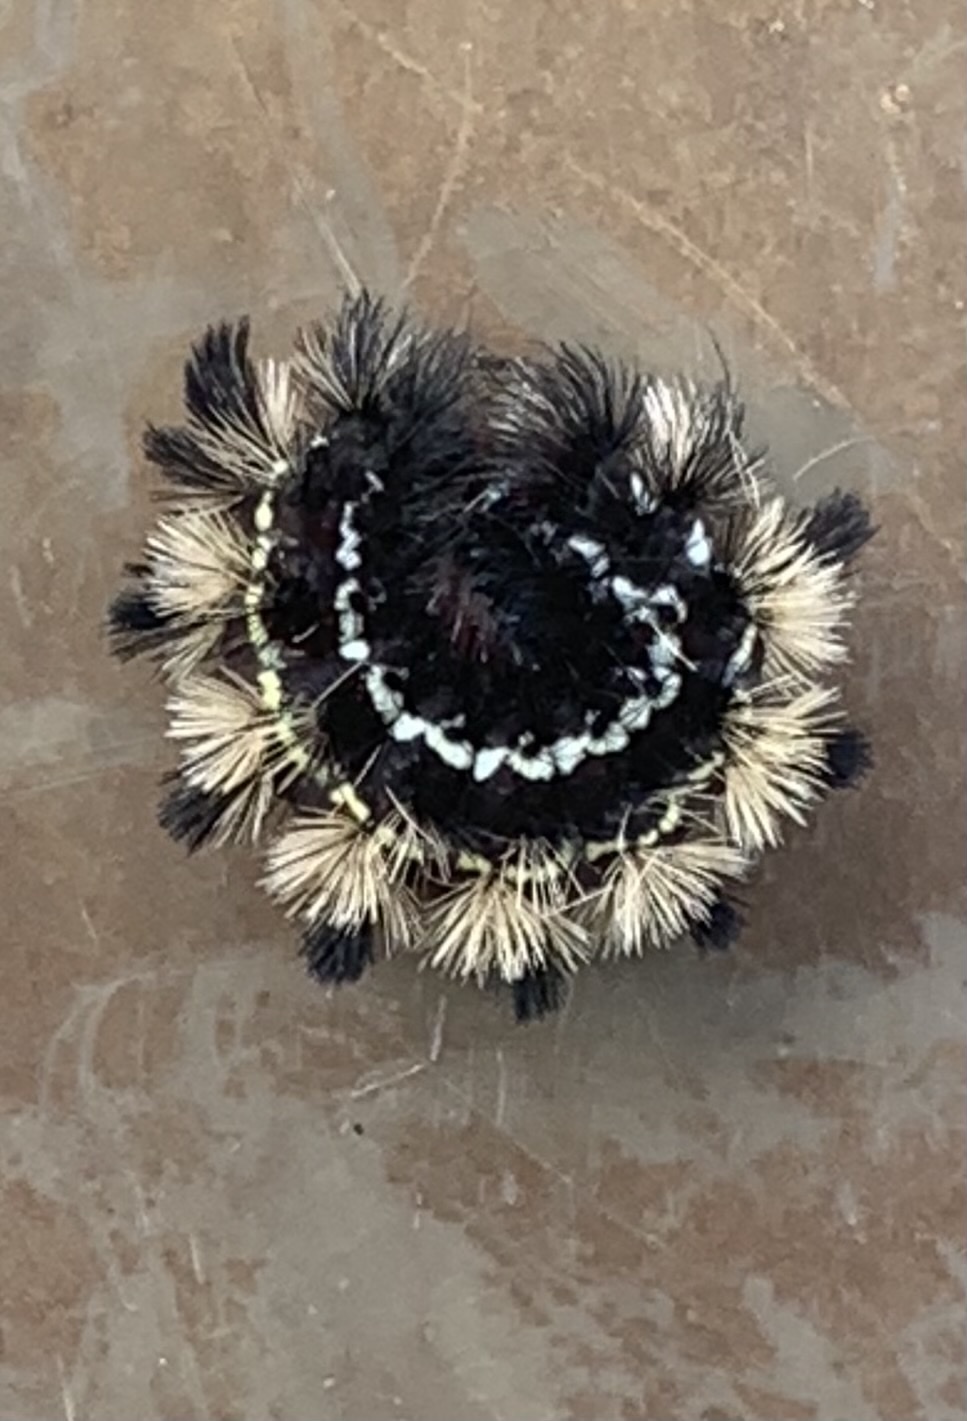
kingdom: Animalia
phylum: Arthropoda
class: Insecta
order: Lepidoptera
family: Erebidae
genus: Ctenucha
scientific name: Ctenucha virginica
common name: Virginia ctenucha moth
